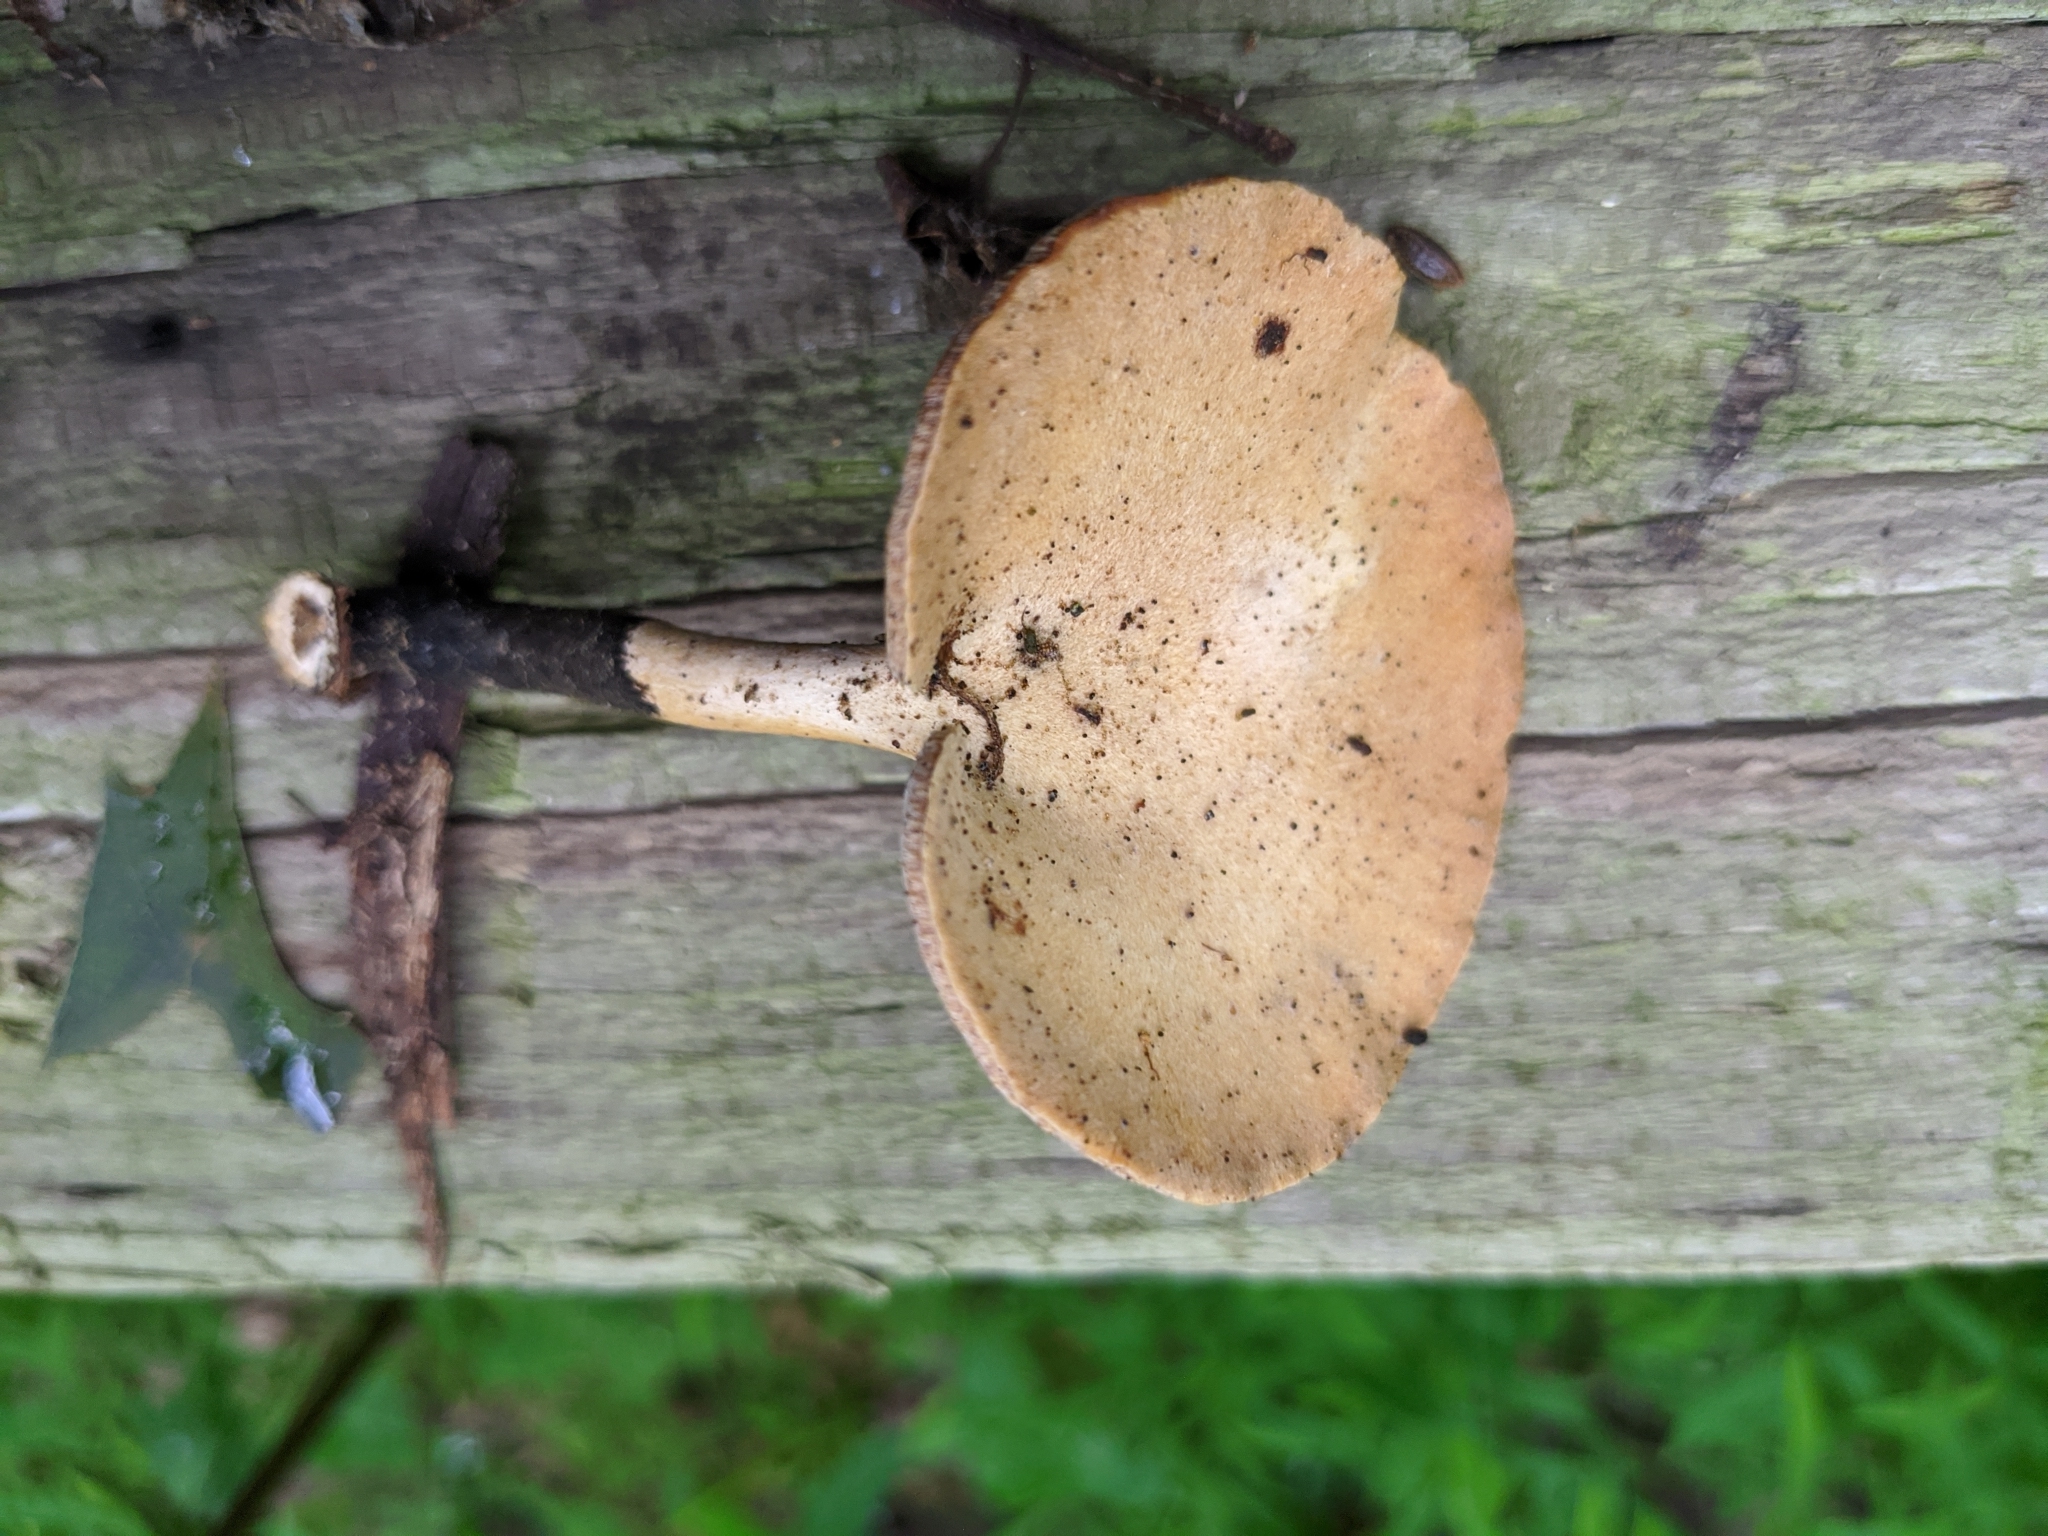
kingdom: Fungi
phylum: Basidiomycota
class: Agaricomycetes
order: Polyporales
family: Polyporaceae
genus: Cerioporus
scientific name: Cerioporus leptocephalus
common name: Blackfoot polypore
